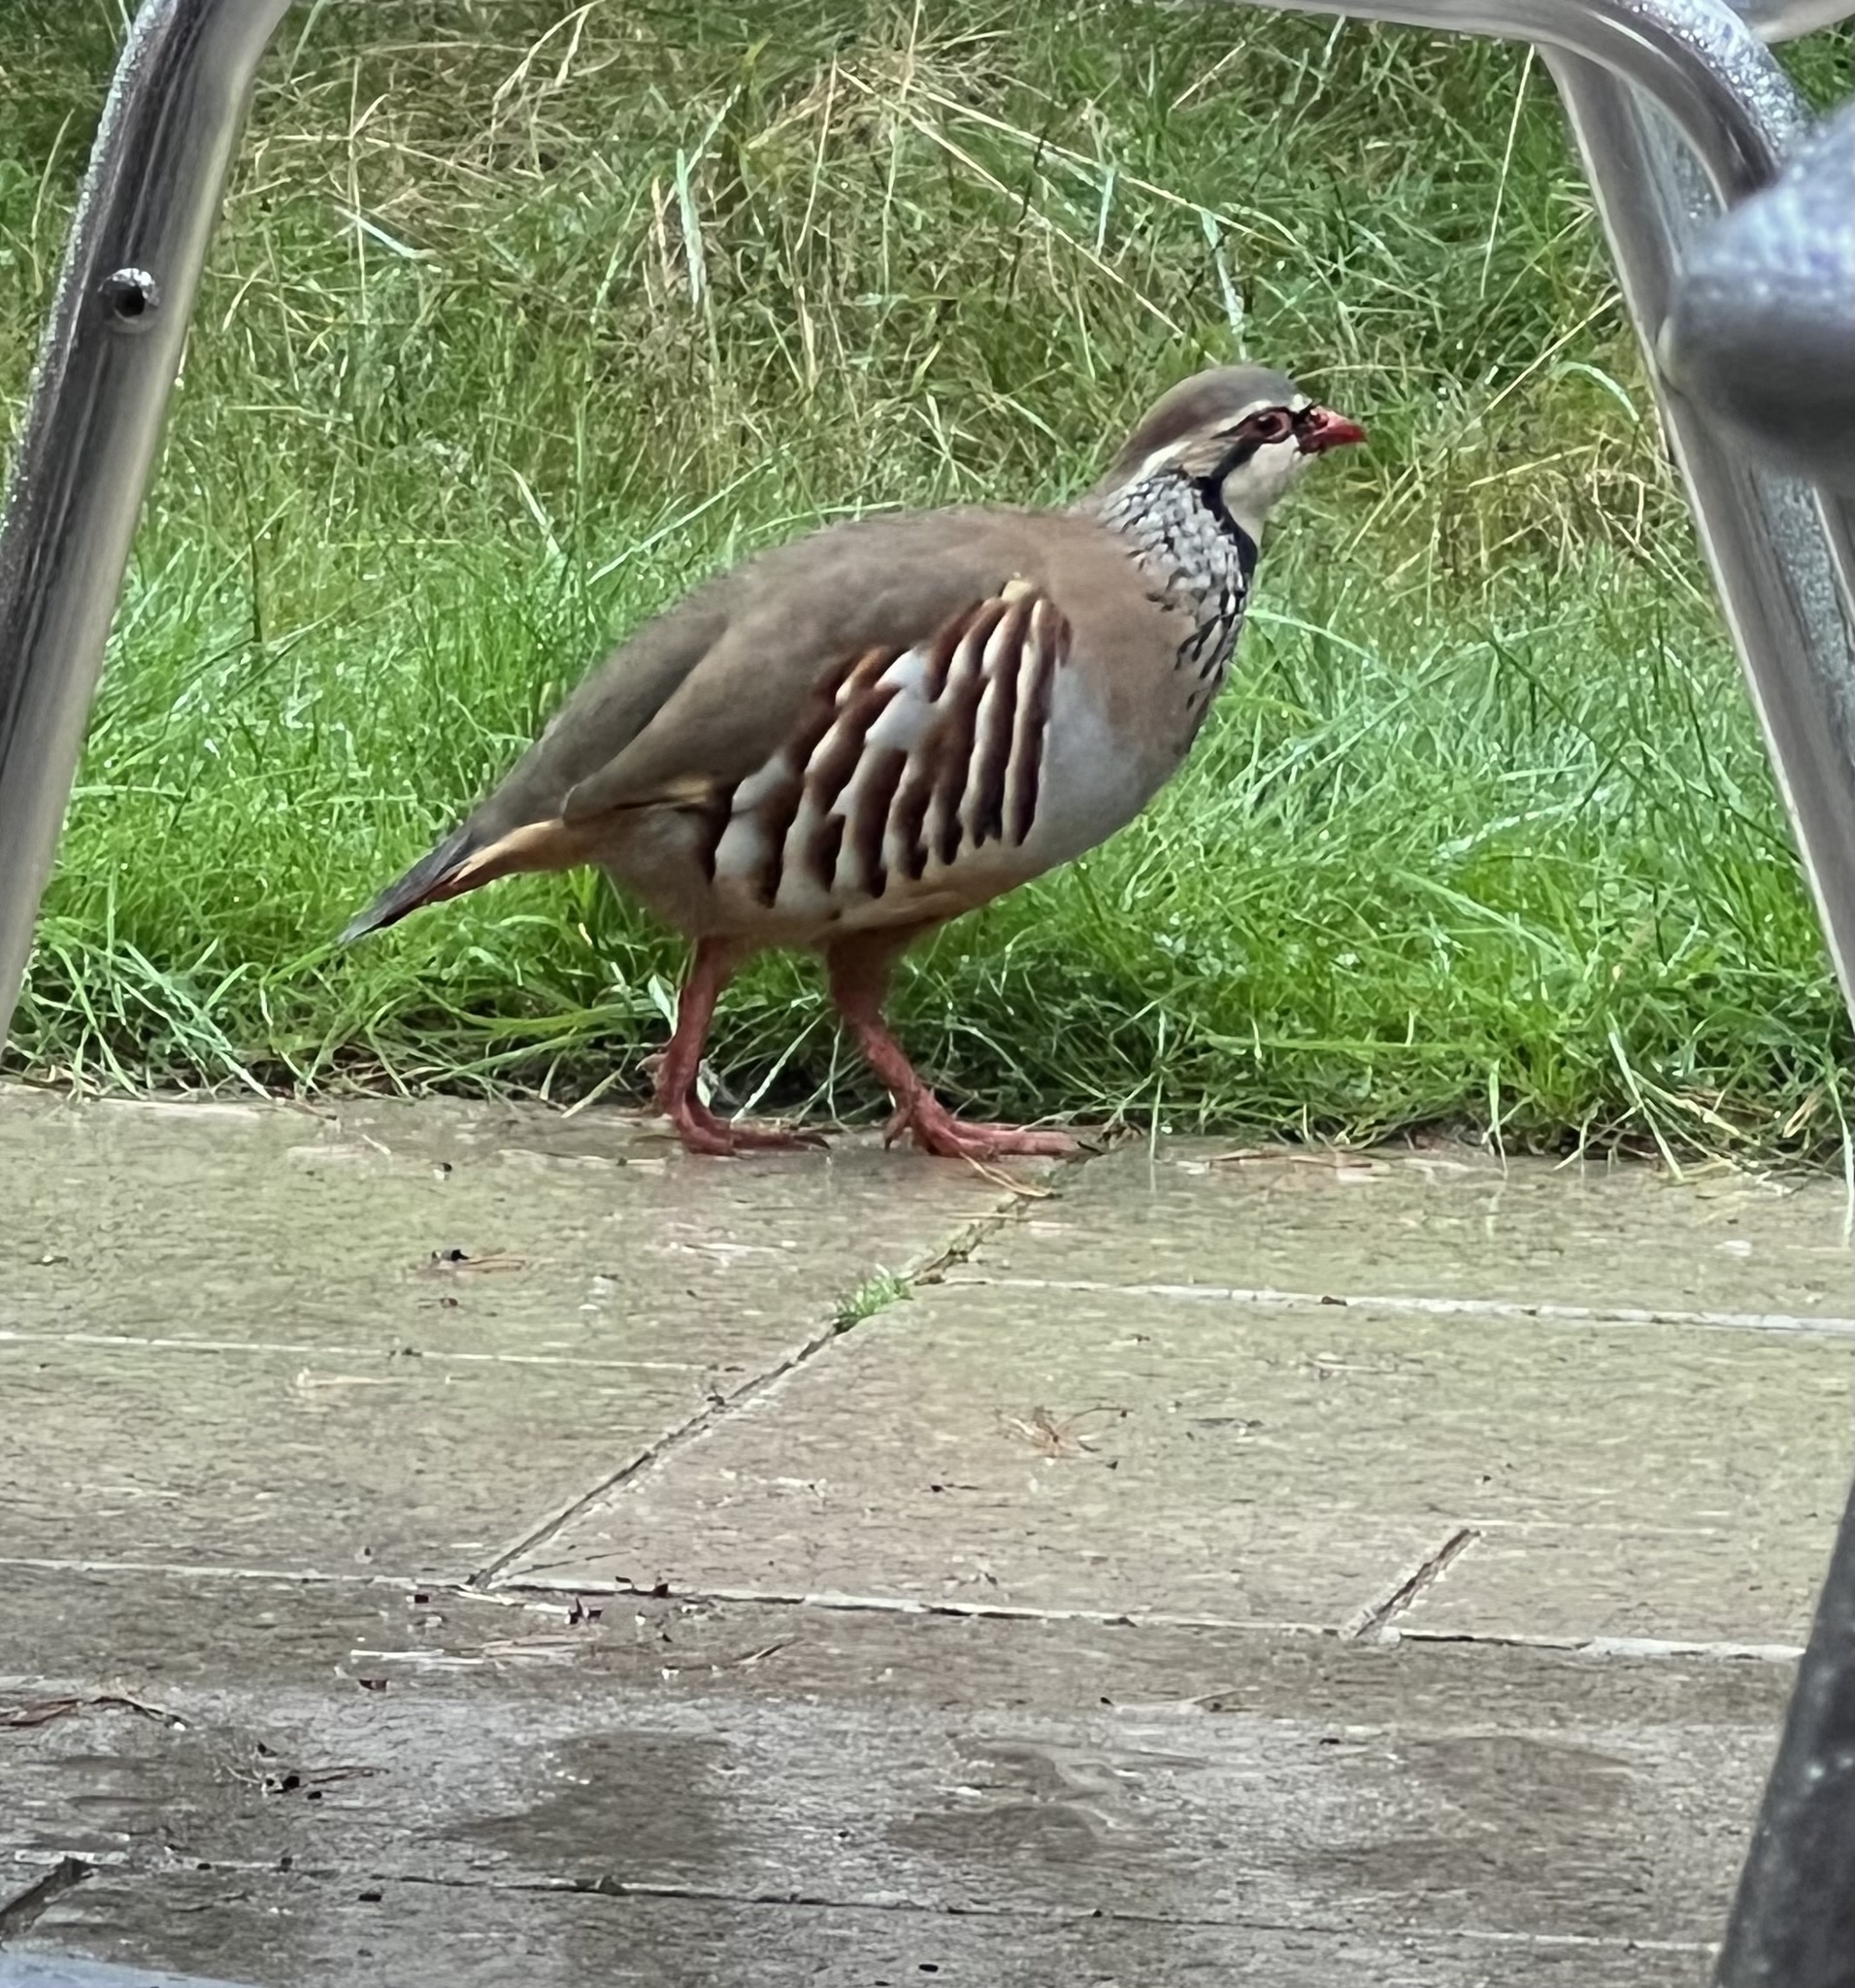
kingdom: Animalia
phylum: Chordata
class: Aves
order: Galliformes
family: Phasianidae
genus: Alectoris
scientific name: Alectoris rufa
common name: Red-legged partridge
